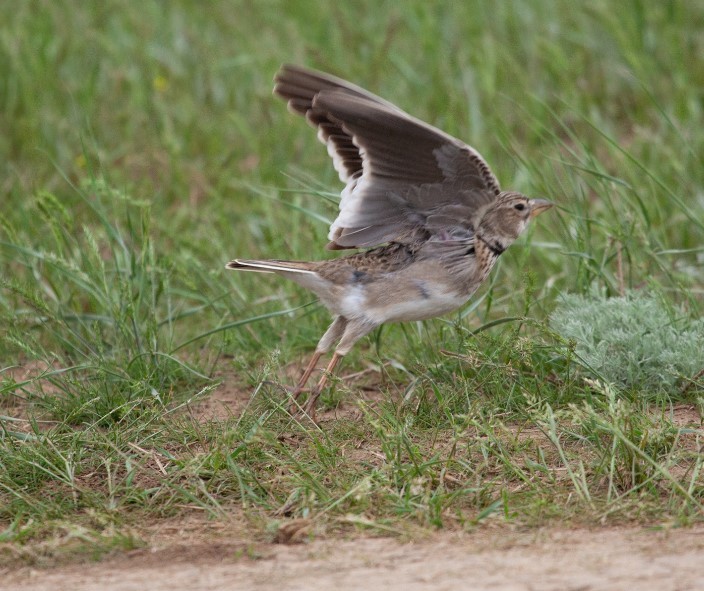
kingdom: Animalia
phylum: Chordata
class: Aves
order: Passeriformes
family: Alaudidae
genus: Melanocorypha
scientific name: Melanocorypha calandra
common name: Calandra lark
